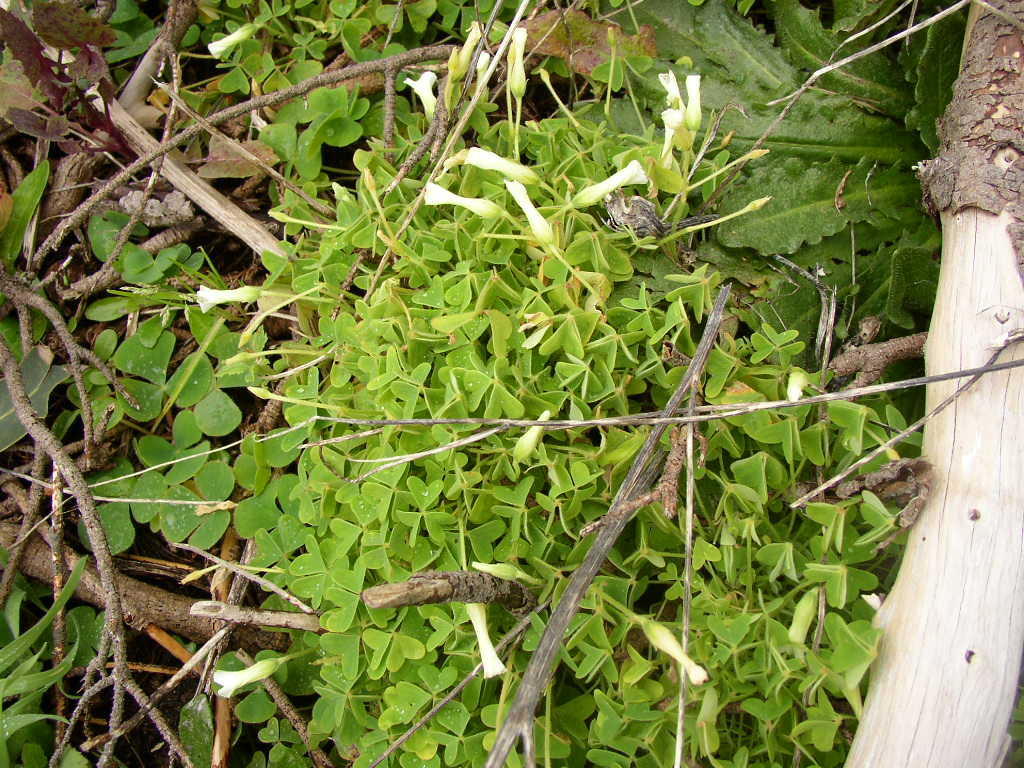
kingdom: Plantae
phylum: Tracheophyta
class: Magnoliopsida
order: Oxalidales
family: Oxalidaceae
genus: Oxalis
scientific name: Oxalis lanata
